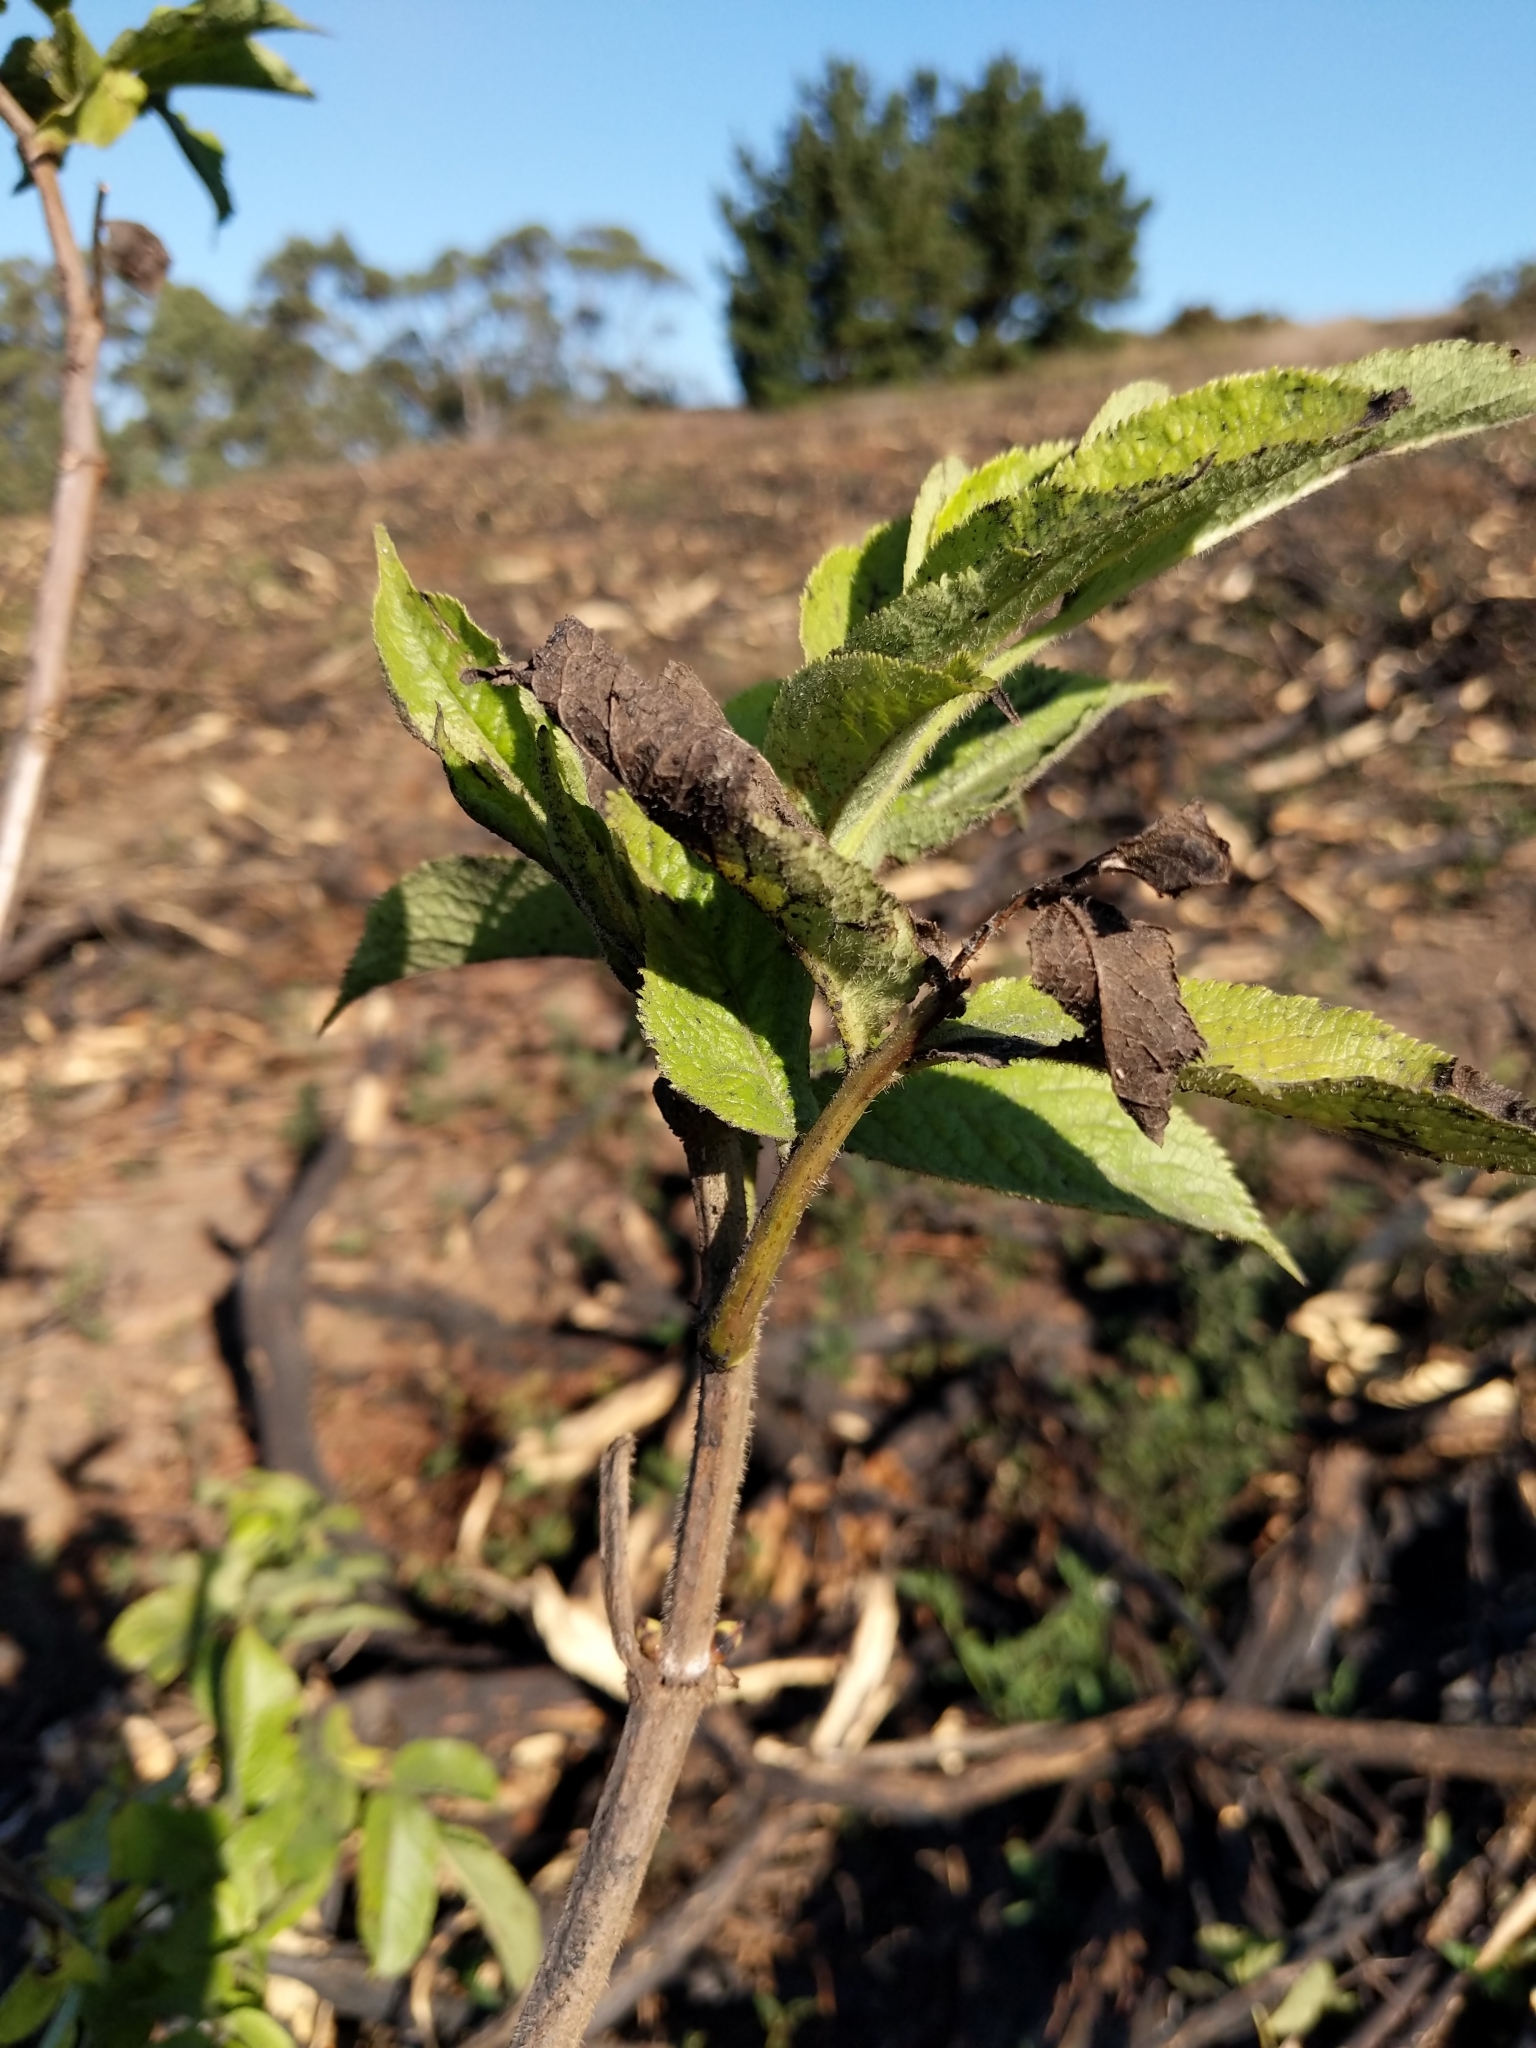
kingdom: Plantae
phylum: Tracheophyta
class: Magnoliopsida
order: Dipsacales
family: Viburnaceae
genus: Sambucus
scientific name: Sambucus racemosa
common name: Red-berried elder
